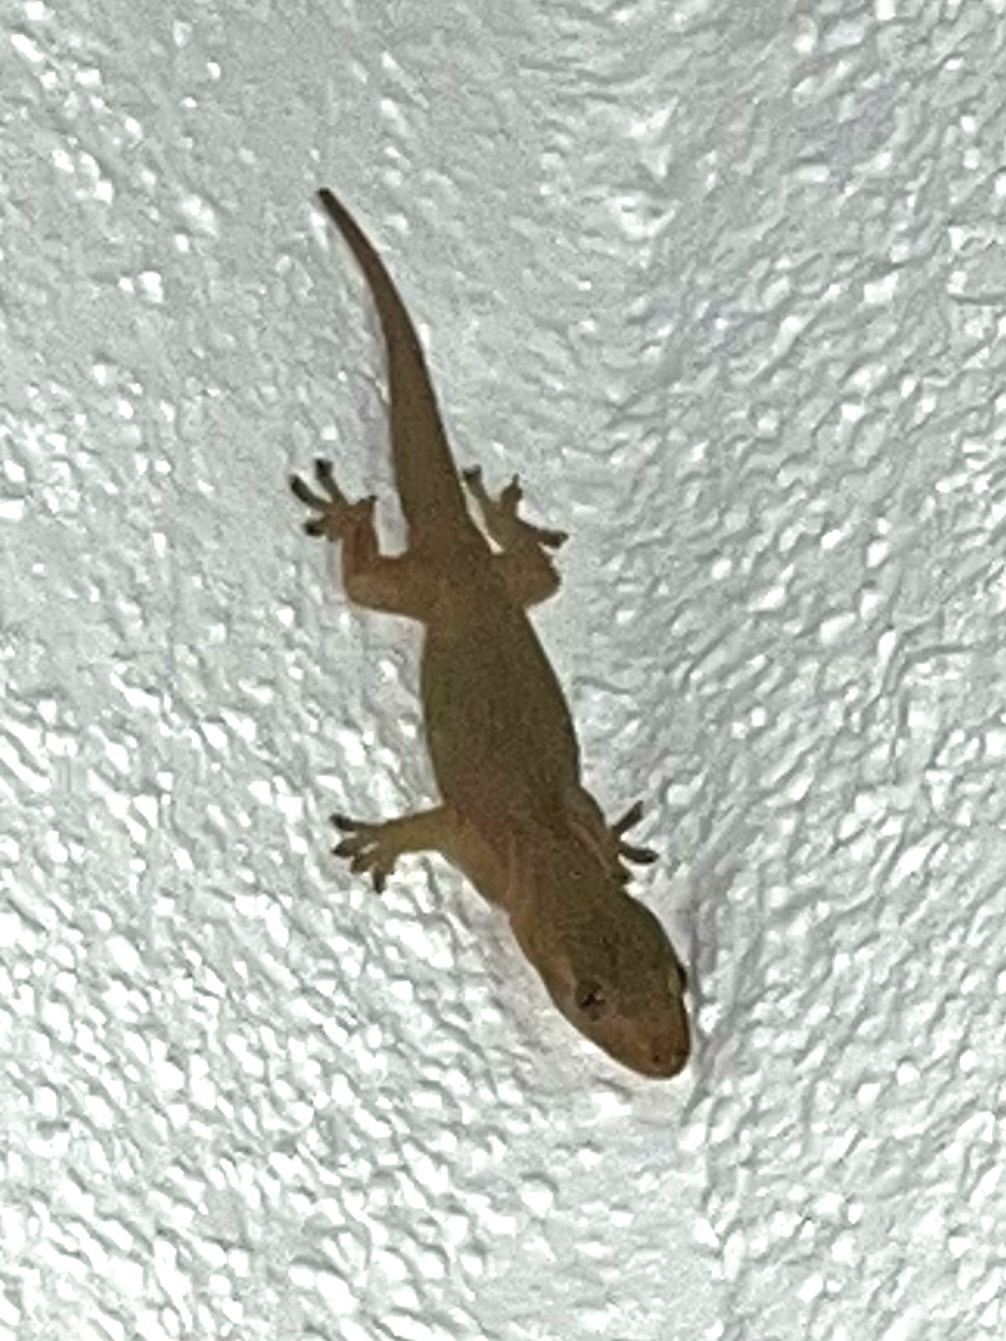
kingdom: Animalia
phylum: Chordata
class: Squamata
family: Gekkonidae
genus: Hemidactylus
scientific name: Hemidactylus frenatus
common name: Common house gecko
